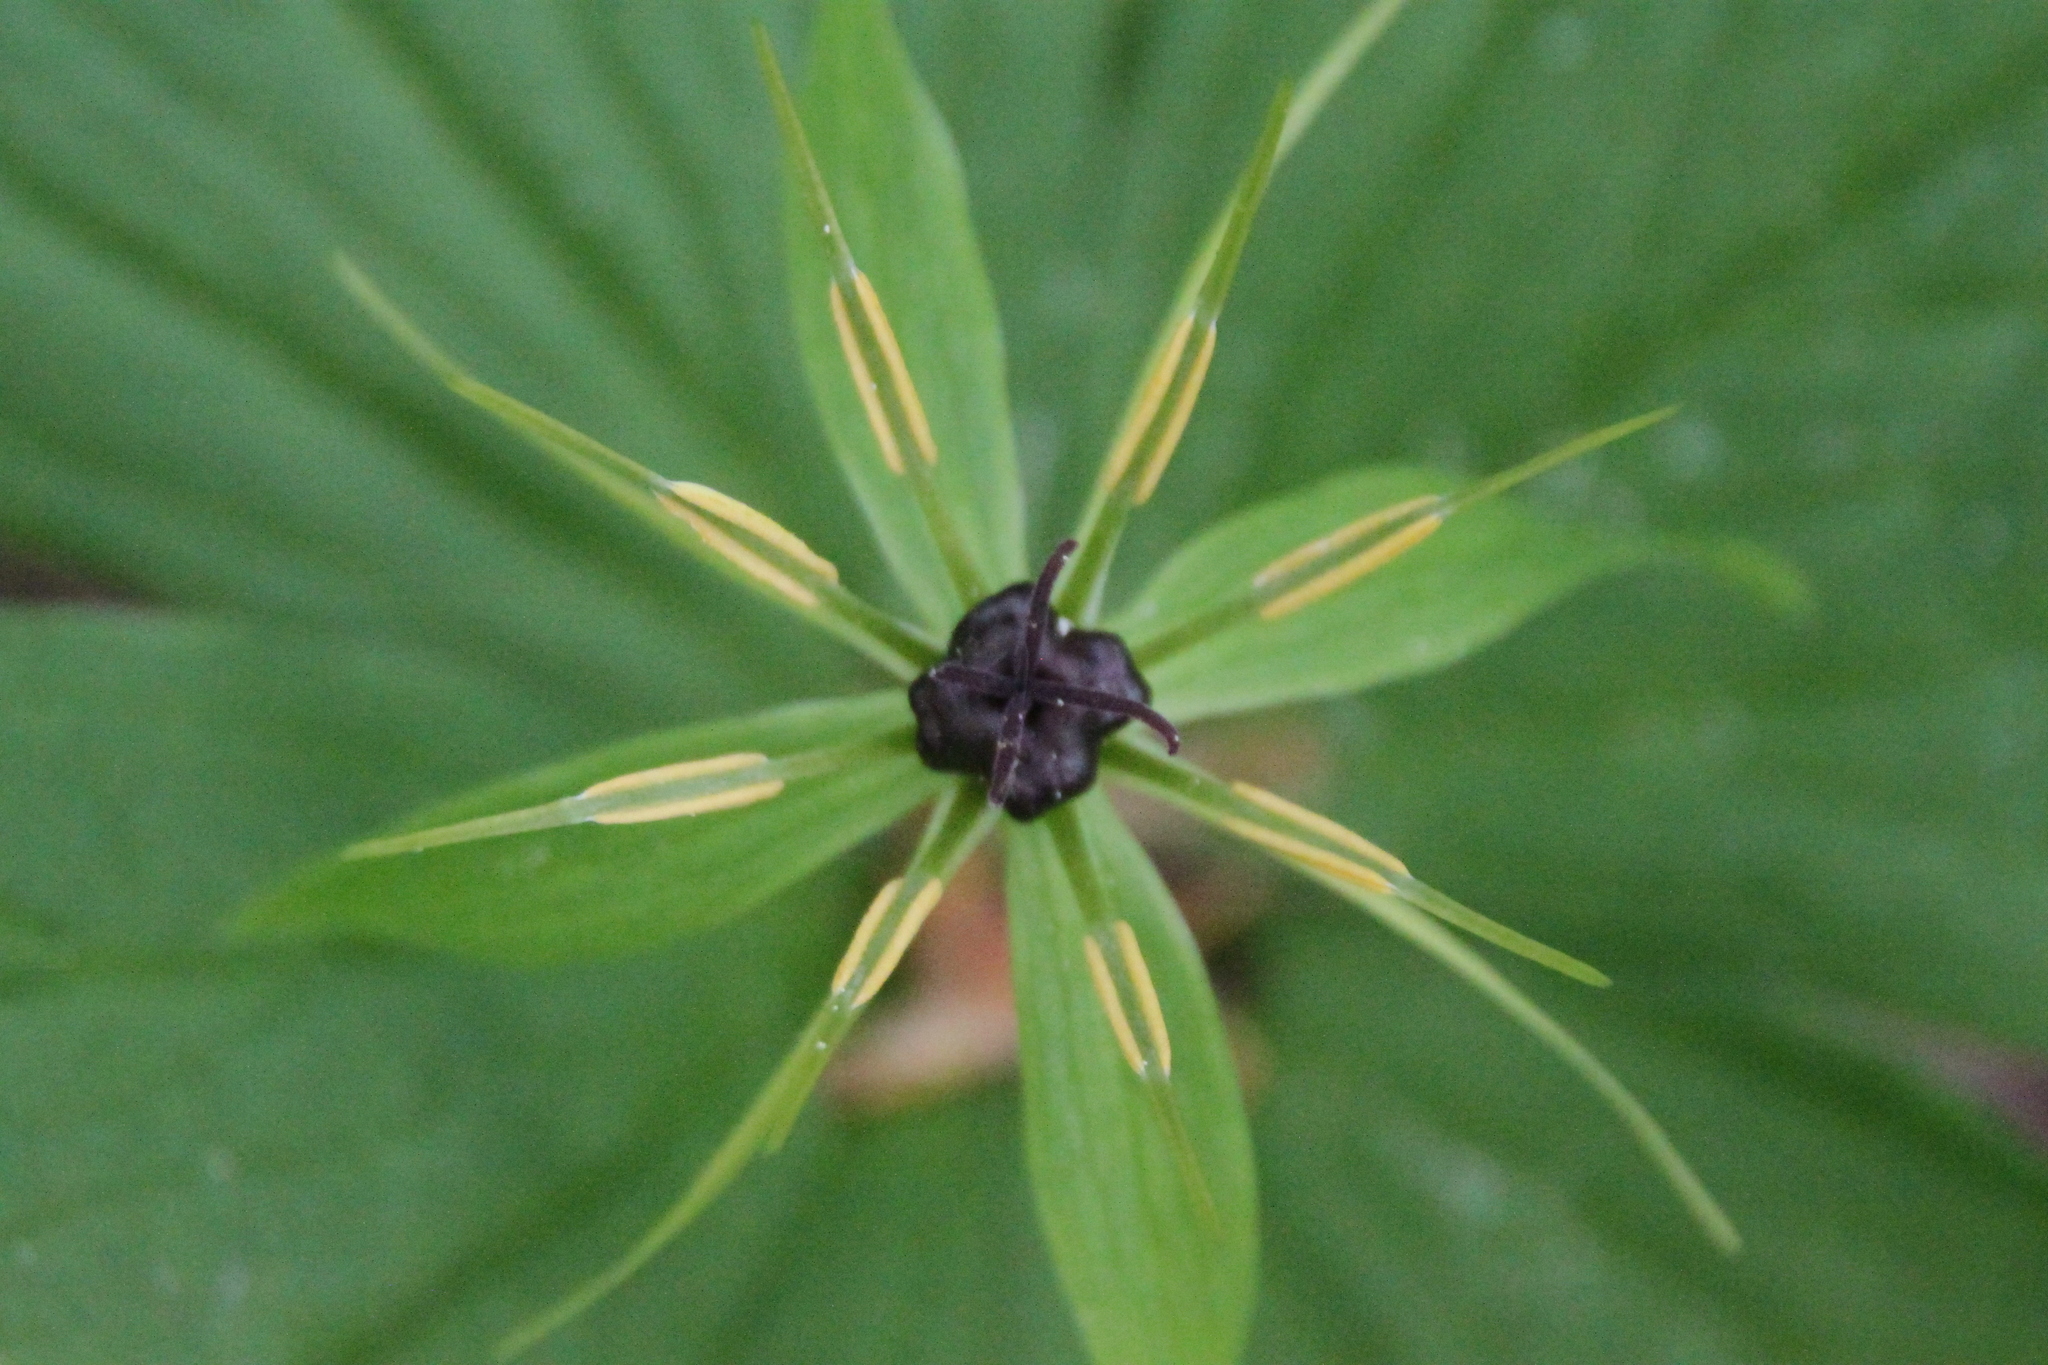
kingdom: Plantae
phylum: Tracheophyta
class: Liliopsida
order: Liliales
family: Melanthiaceae
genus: Paris
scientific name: Paris quadrifolia
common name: Herb-paris
